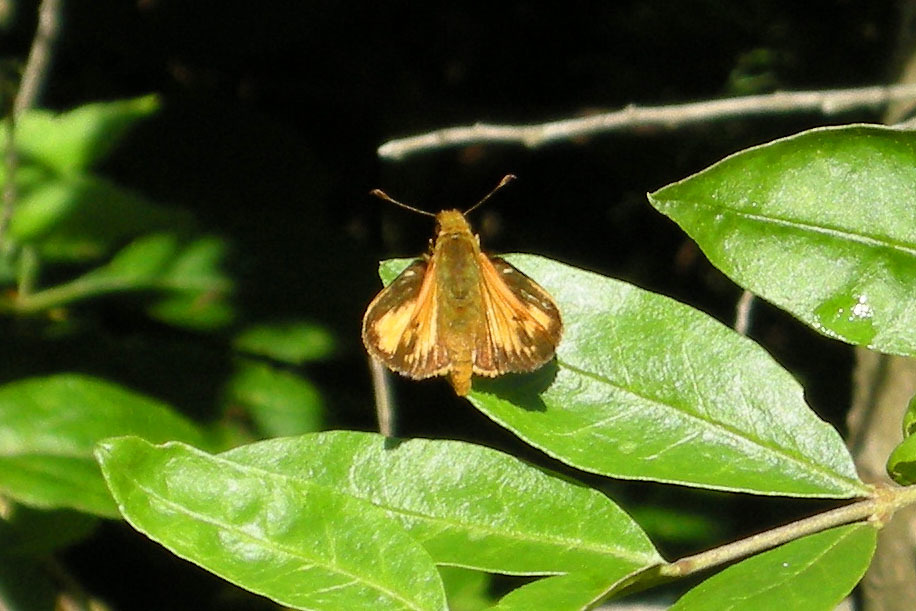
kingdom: Animalia
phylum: Arthropoda
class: Insecta
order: Lepidoptera
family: Hesperiidae
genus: Lon
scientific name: Lon zabulon
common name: Zabulon skipper
